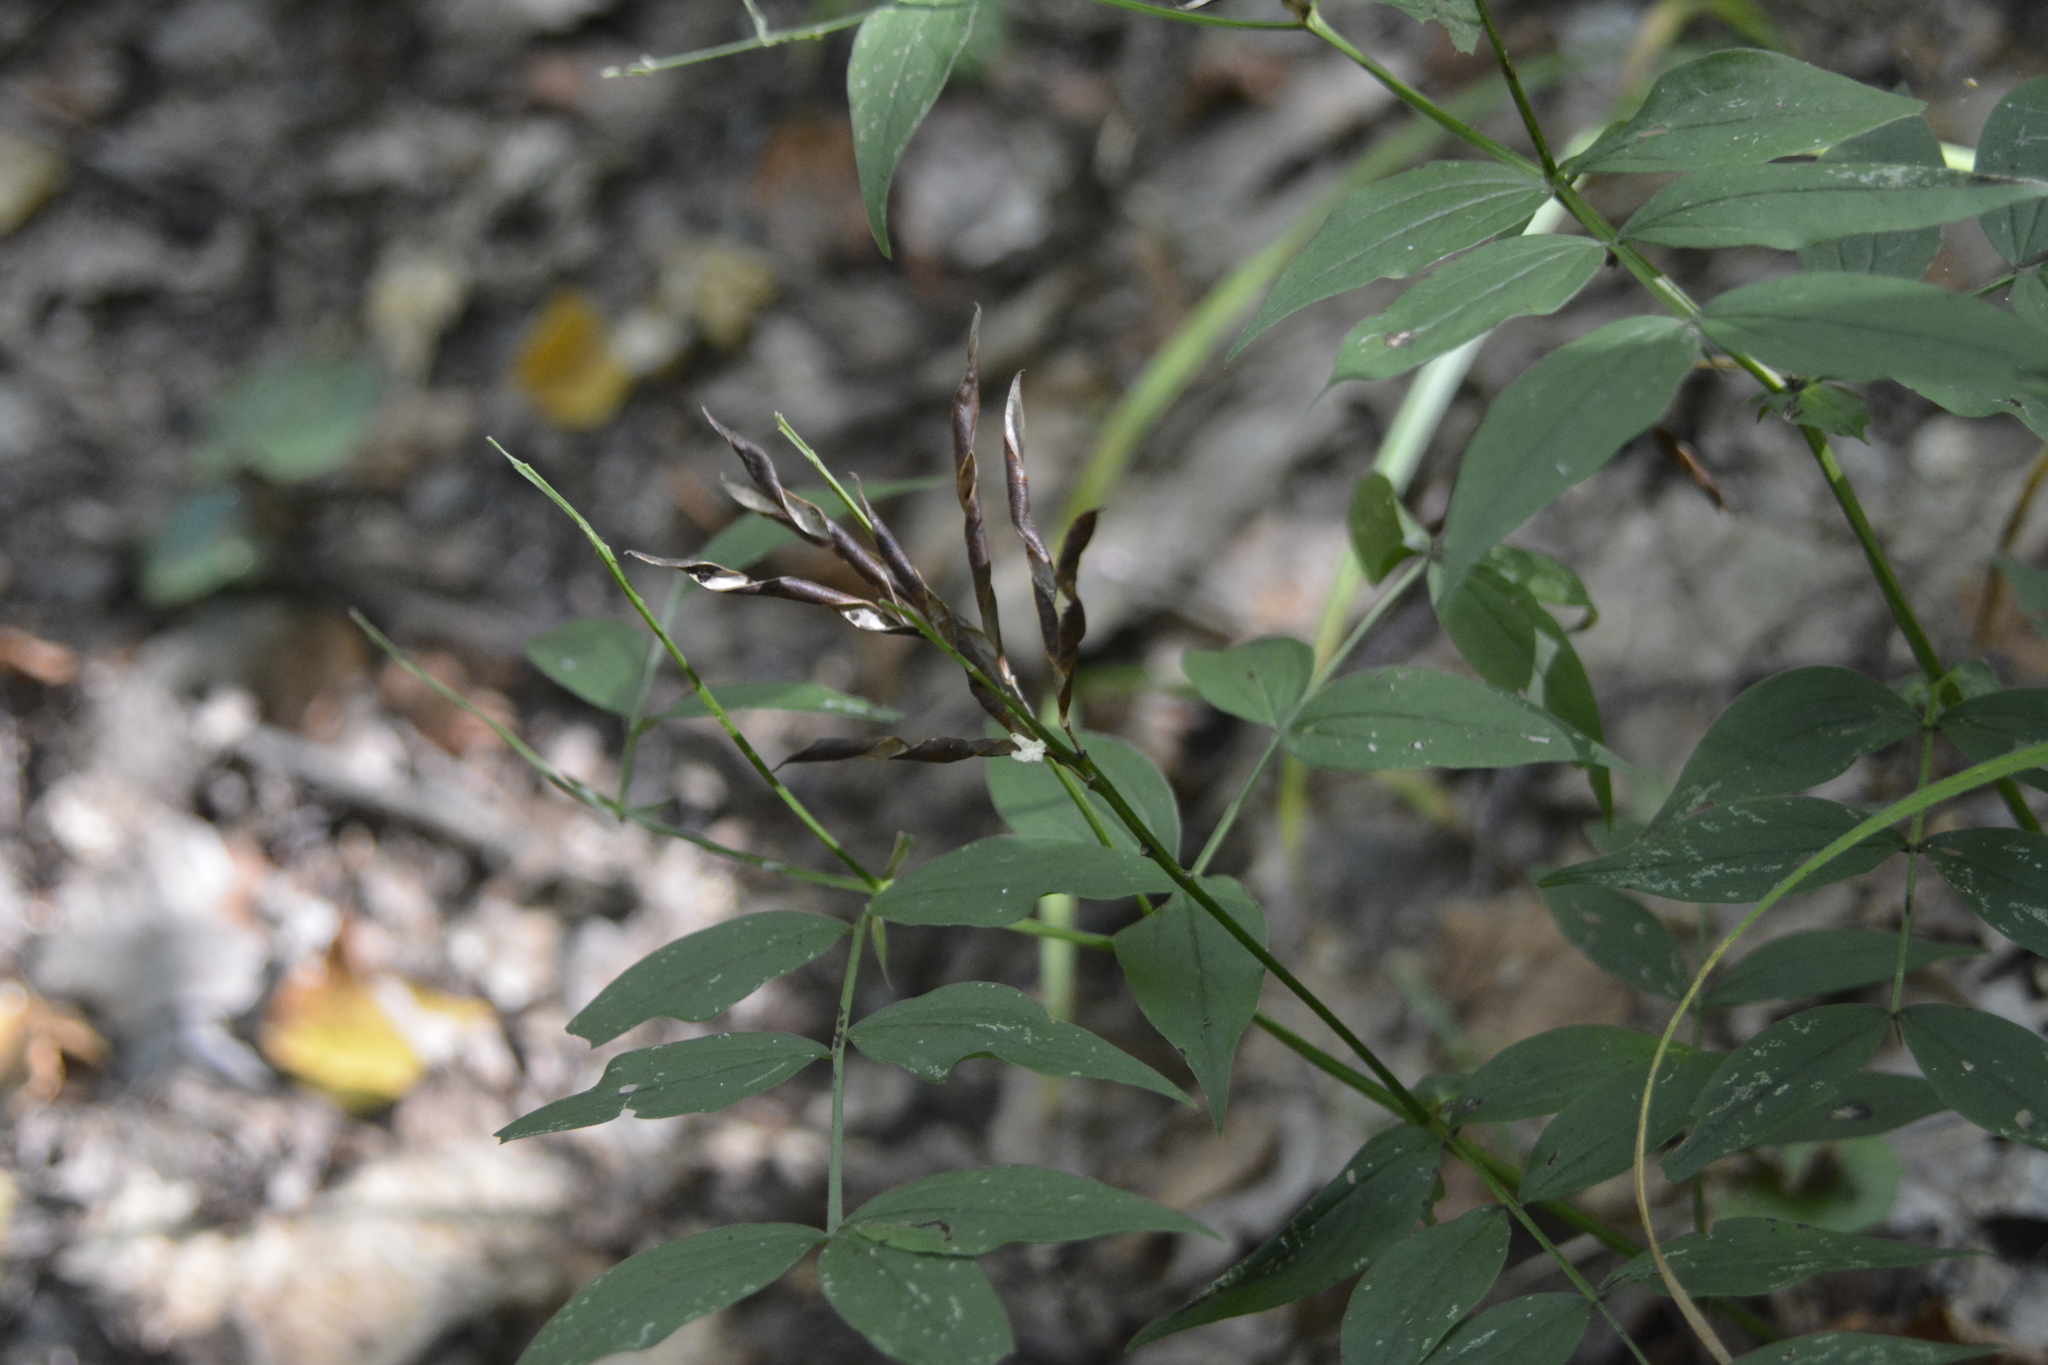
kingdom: Plantae
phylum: Tracheophyta
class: Magnoliopsida
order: Fabales
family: Fabaceae
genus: Lathyrus
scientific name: Lathyrus vernus
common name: Spring pea
